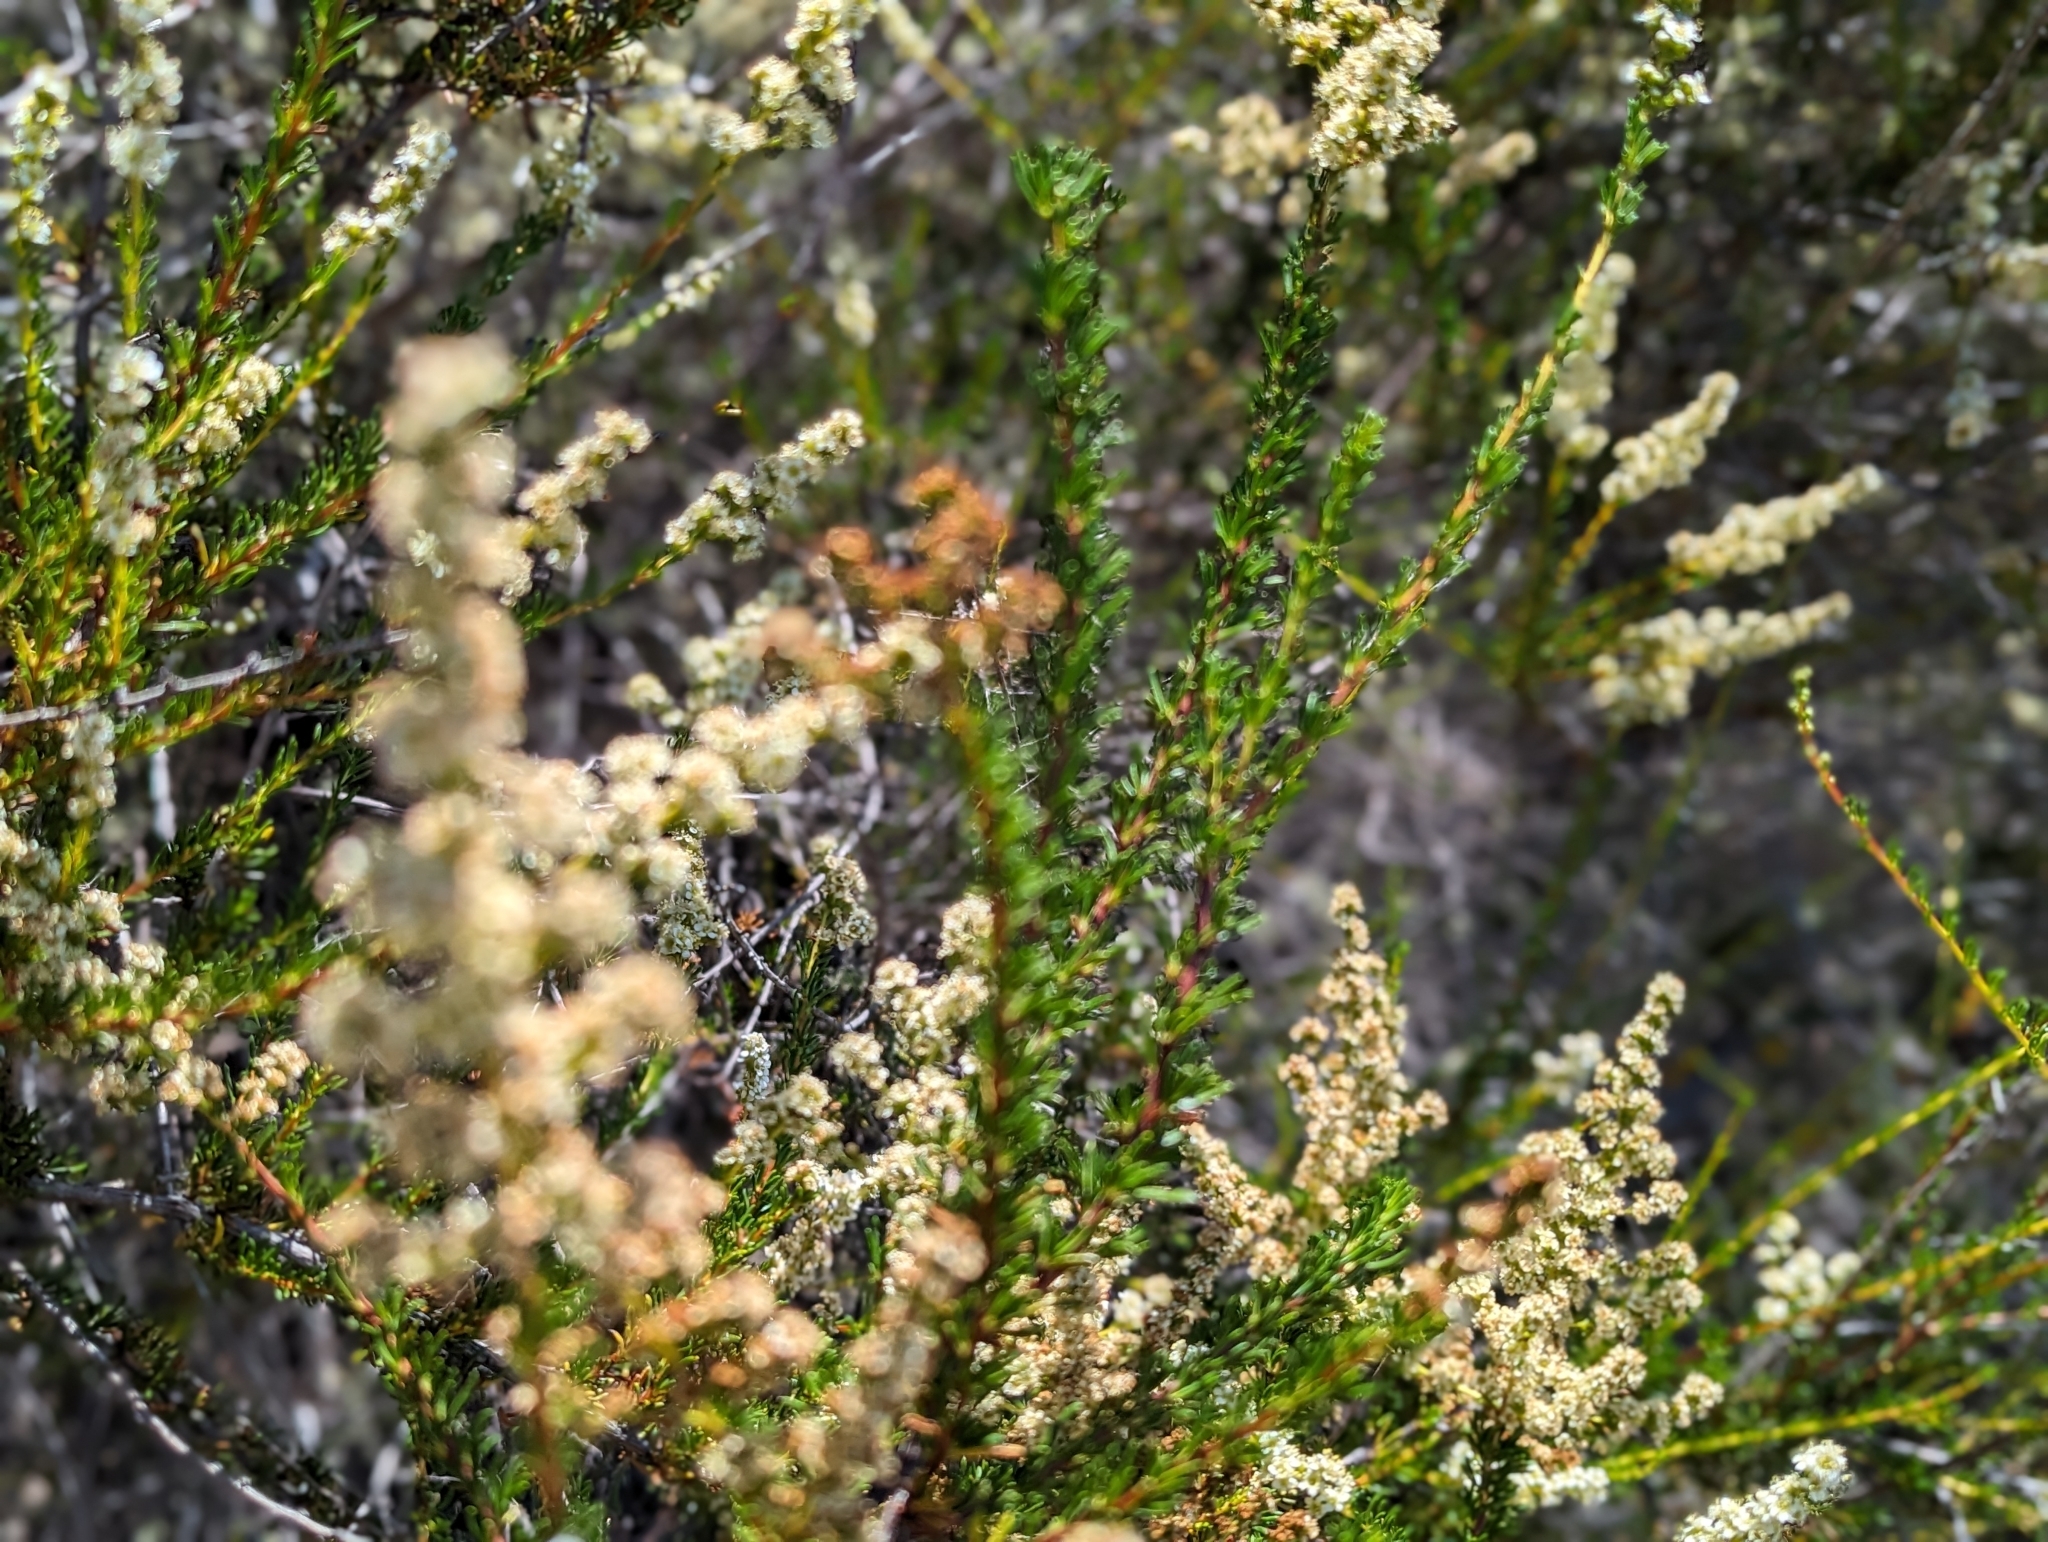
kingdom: Plantae
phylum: Tracheophyta
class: Magnoliopsida
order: Rosales
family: Rosaceae
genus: Adenostoma
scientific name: Adenostoma fasciculatum
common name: Chamise
